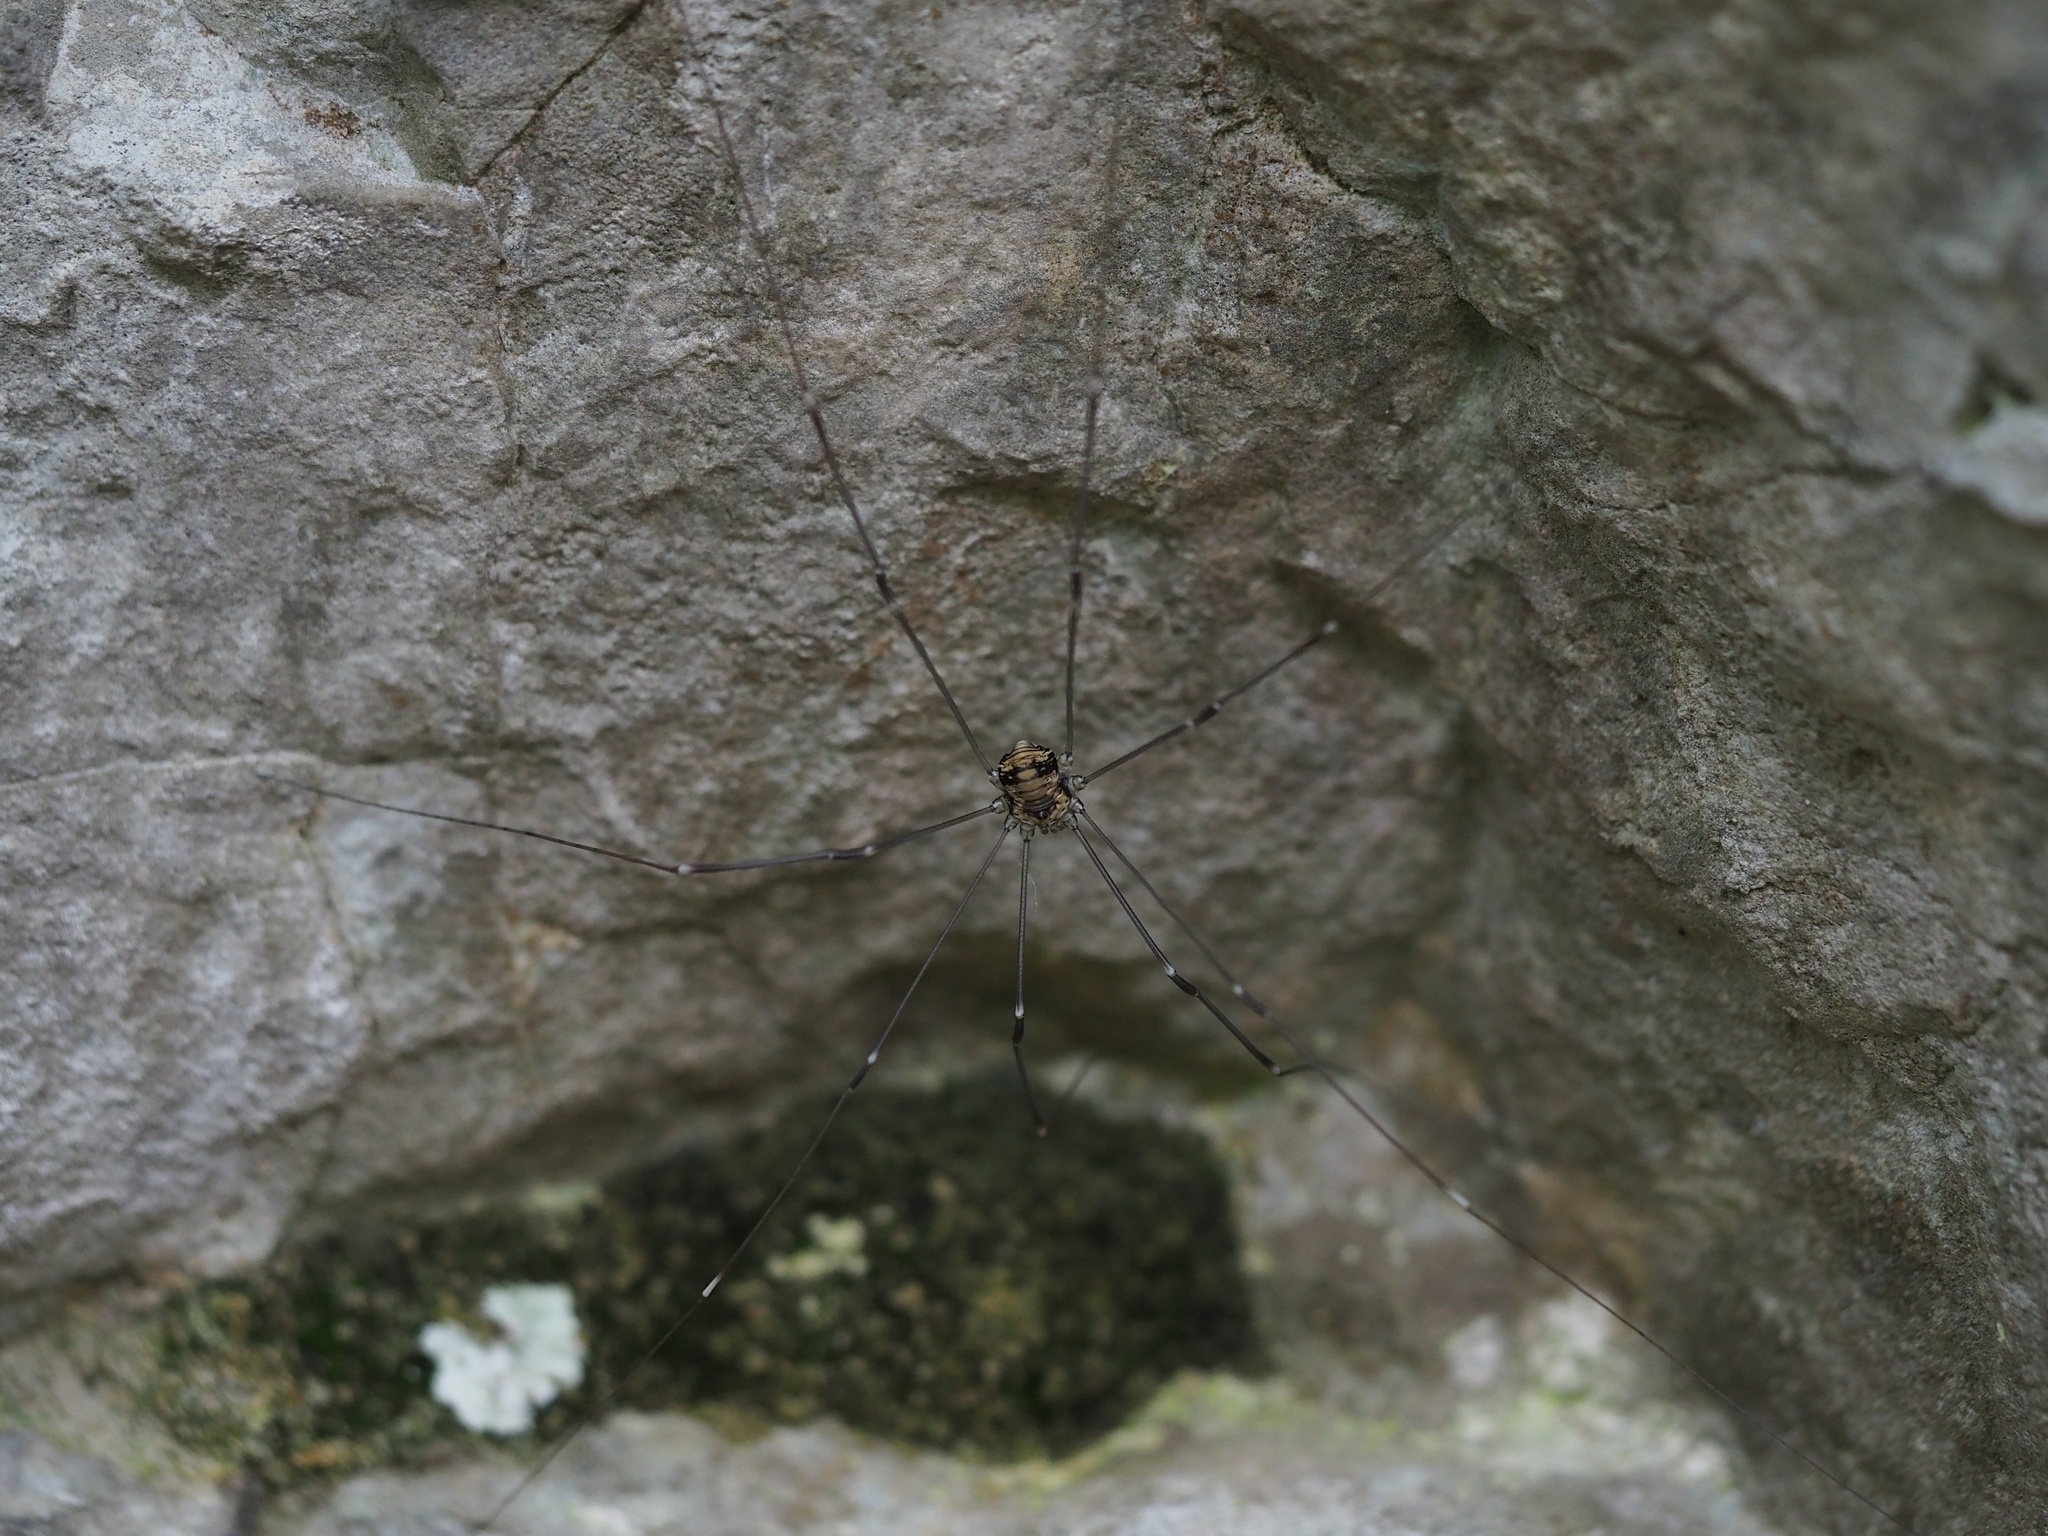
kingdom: Animalia
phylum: Arthropoda
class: Arachnida
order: Opiliones
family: Sclerosomatidae
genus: Leiobunum
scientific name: Leiobunum limbatum
